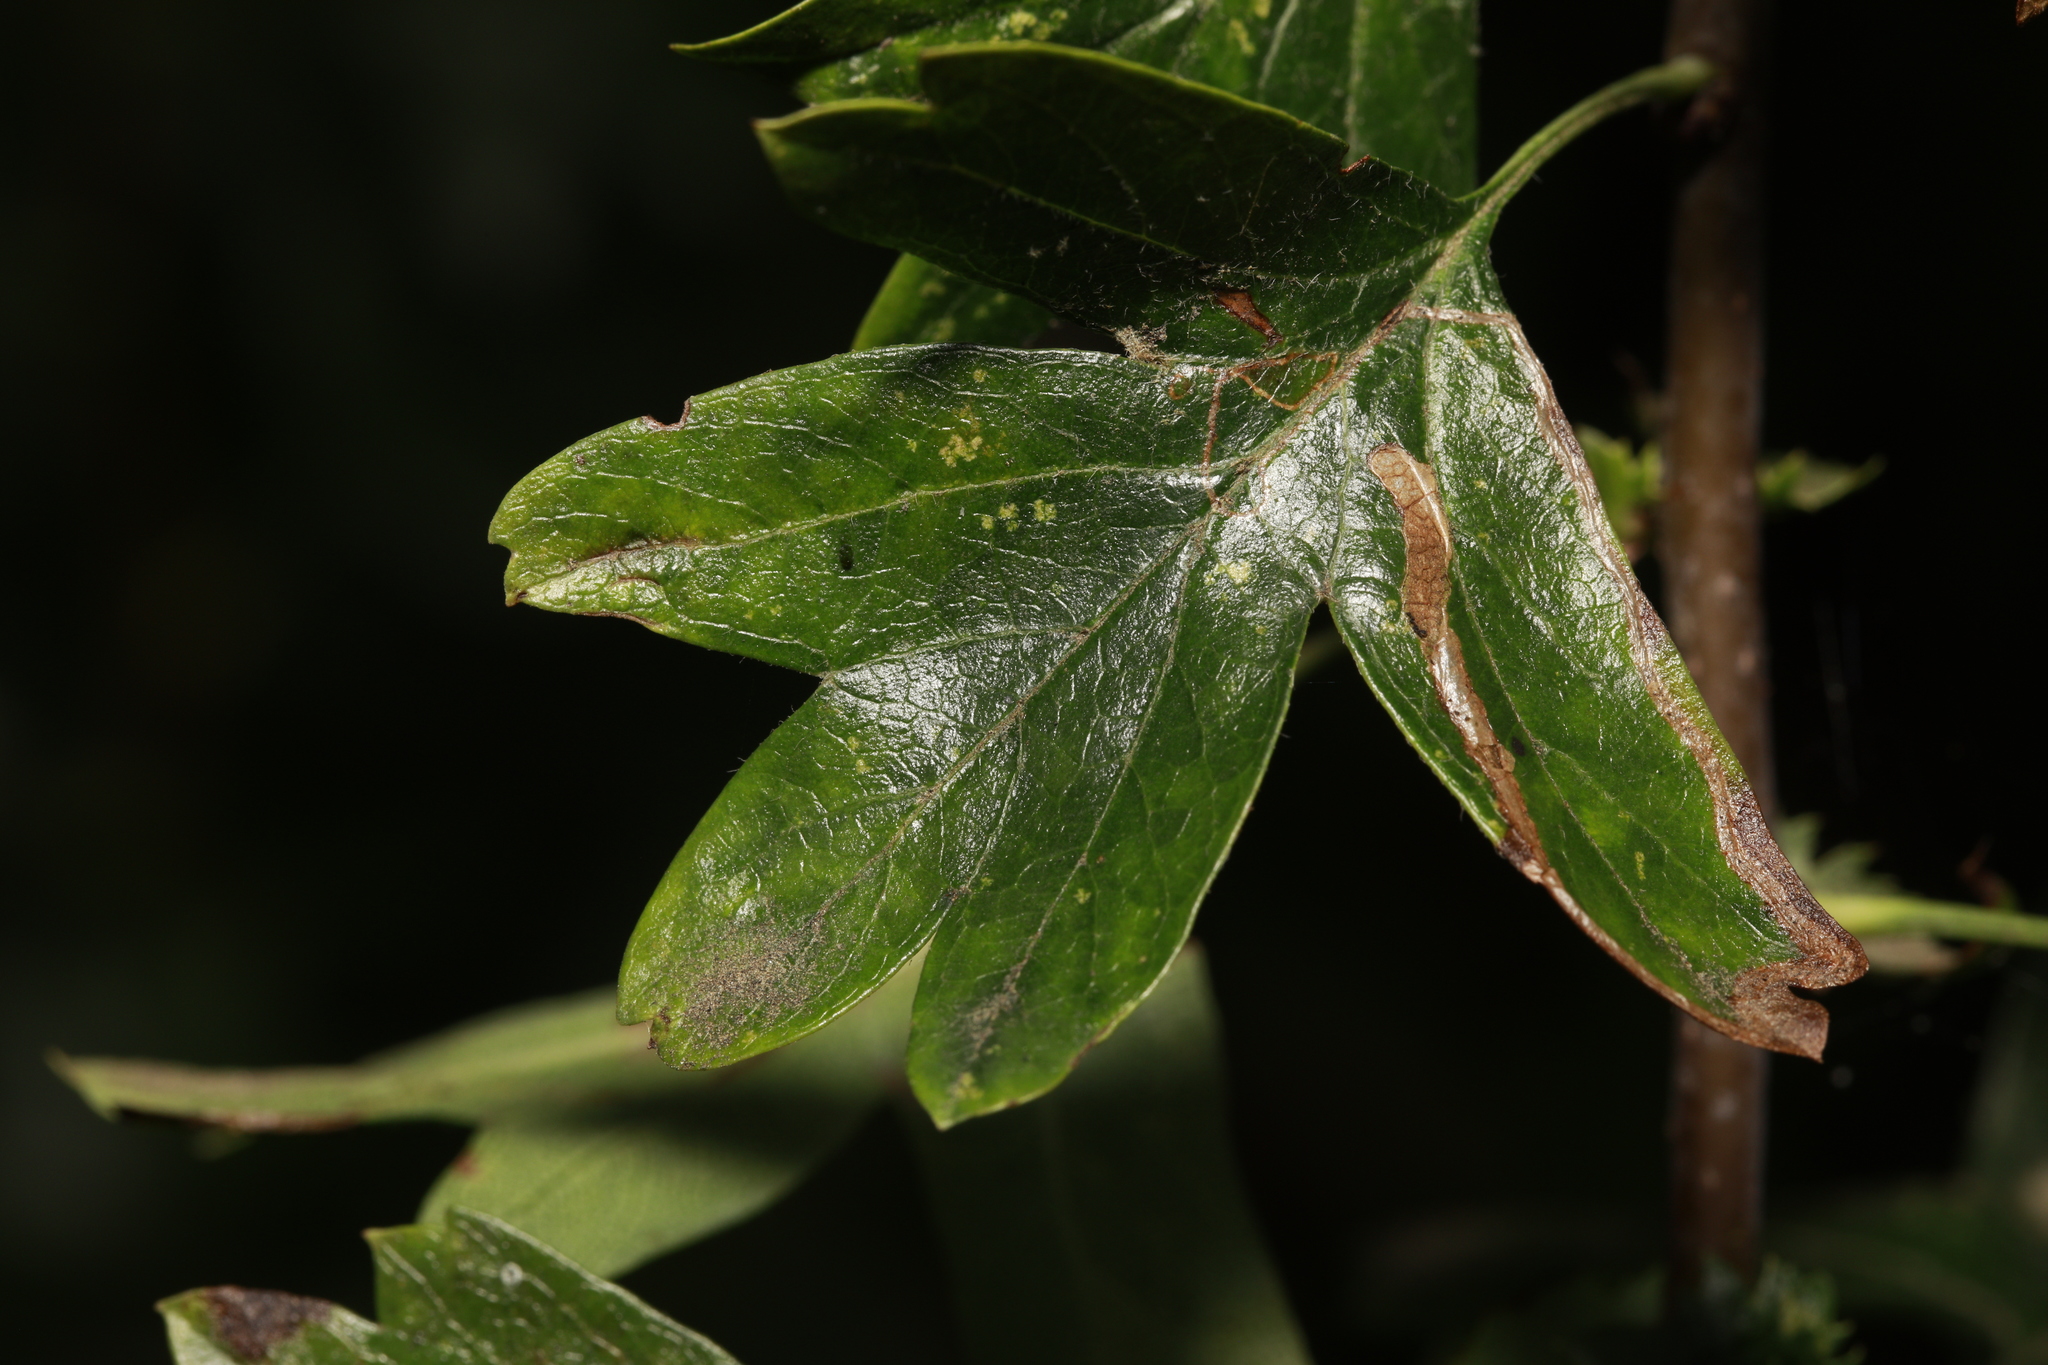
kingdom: Animalia
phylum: Arthropoda
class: Insecta
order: Lepidoptera
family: Lyonetiidae
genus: Lyonetia
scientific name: Lyonetia clerkella
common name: Apple leaf miner
